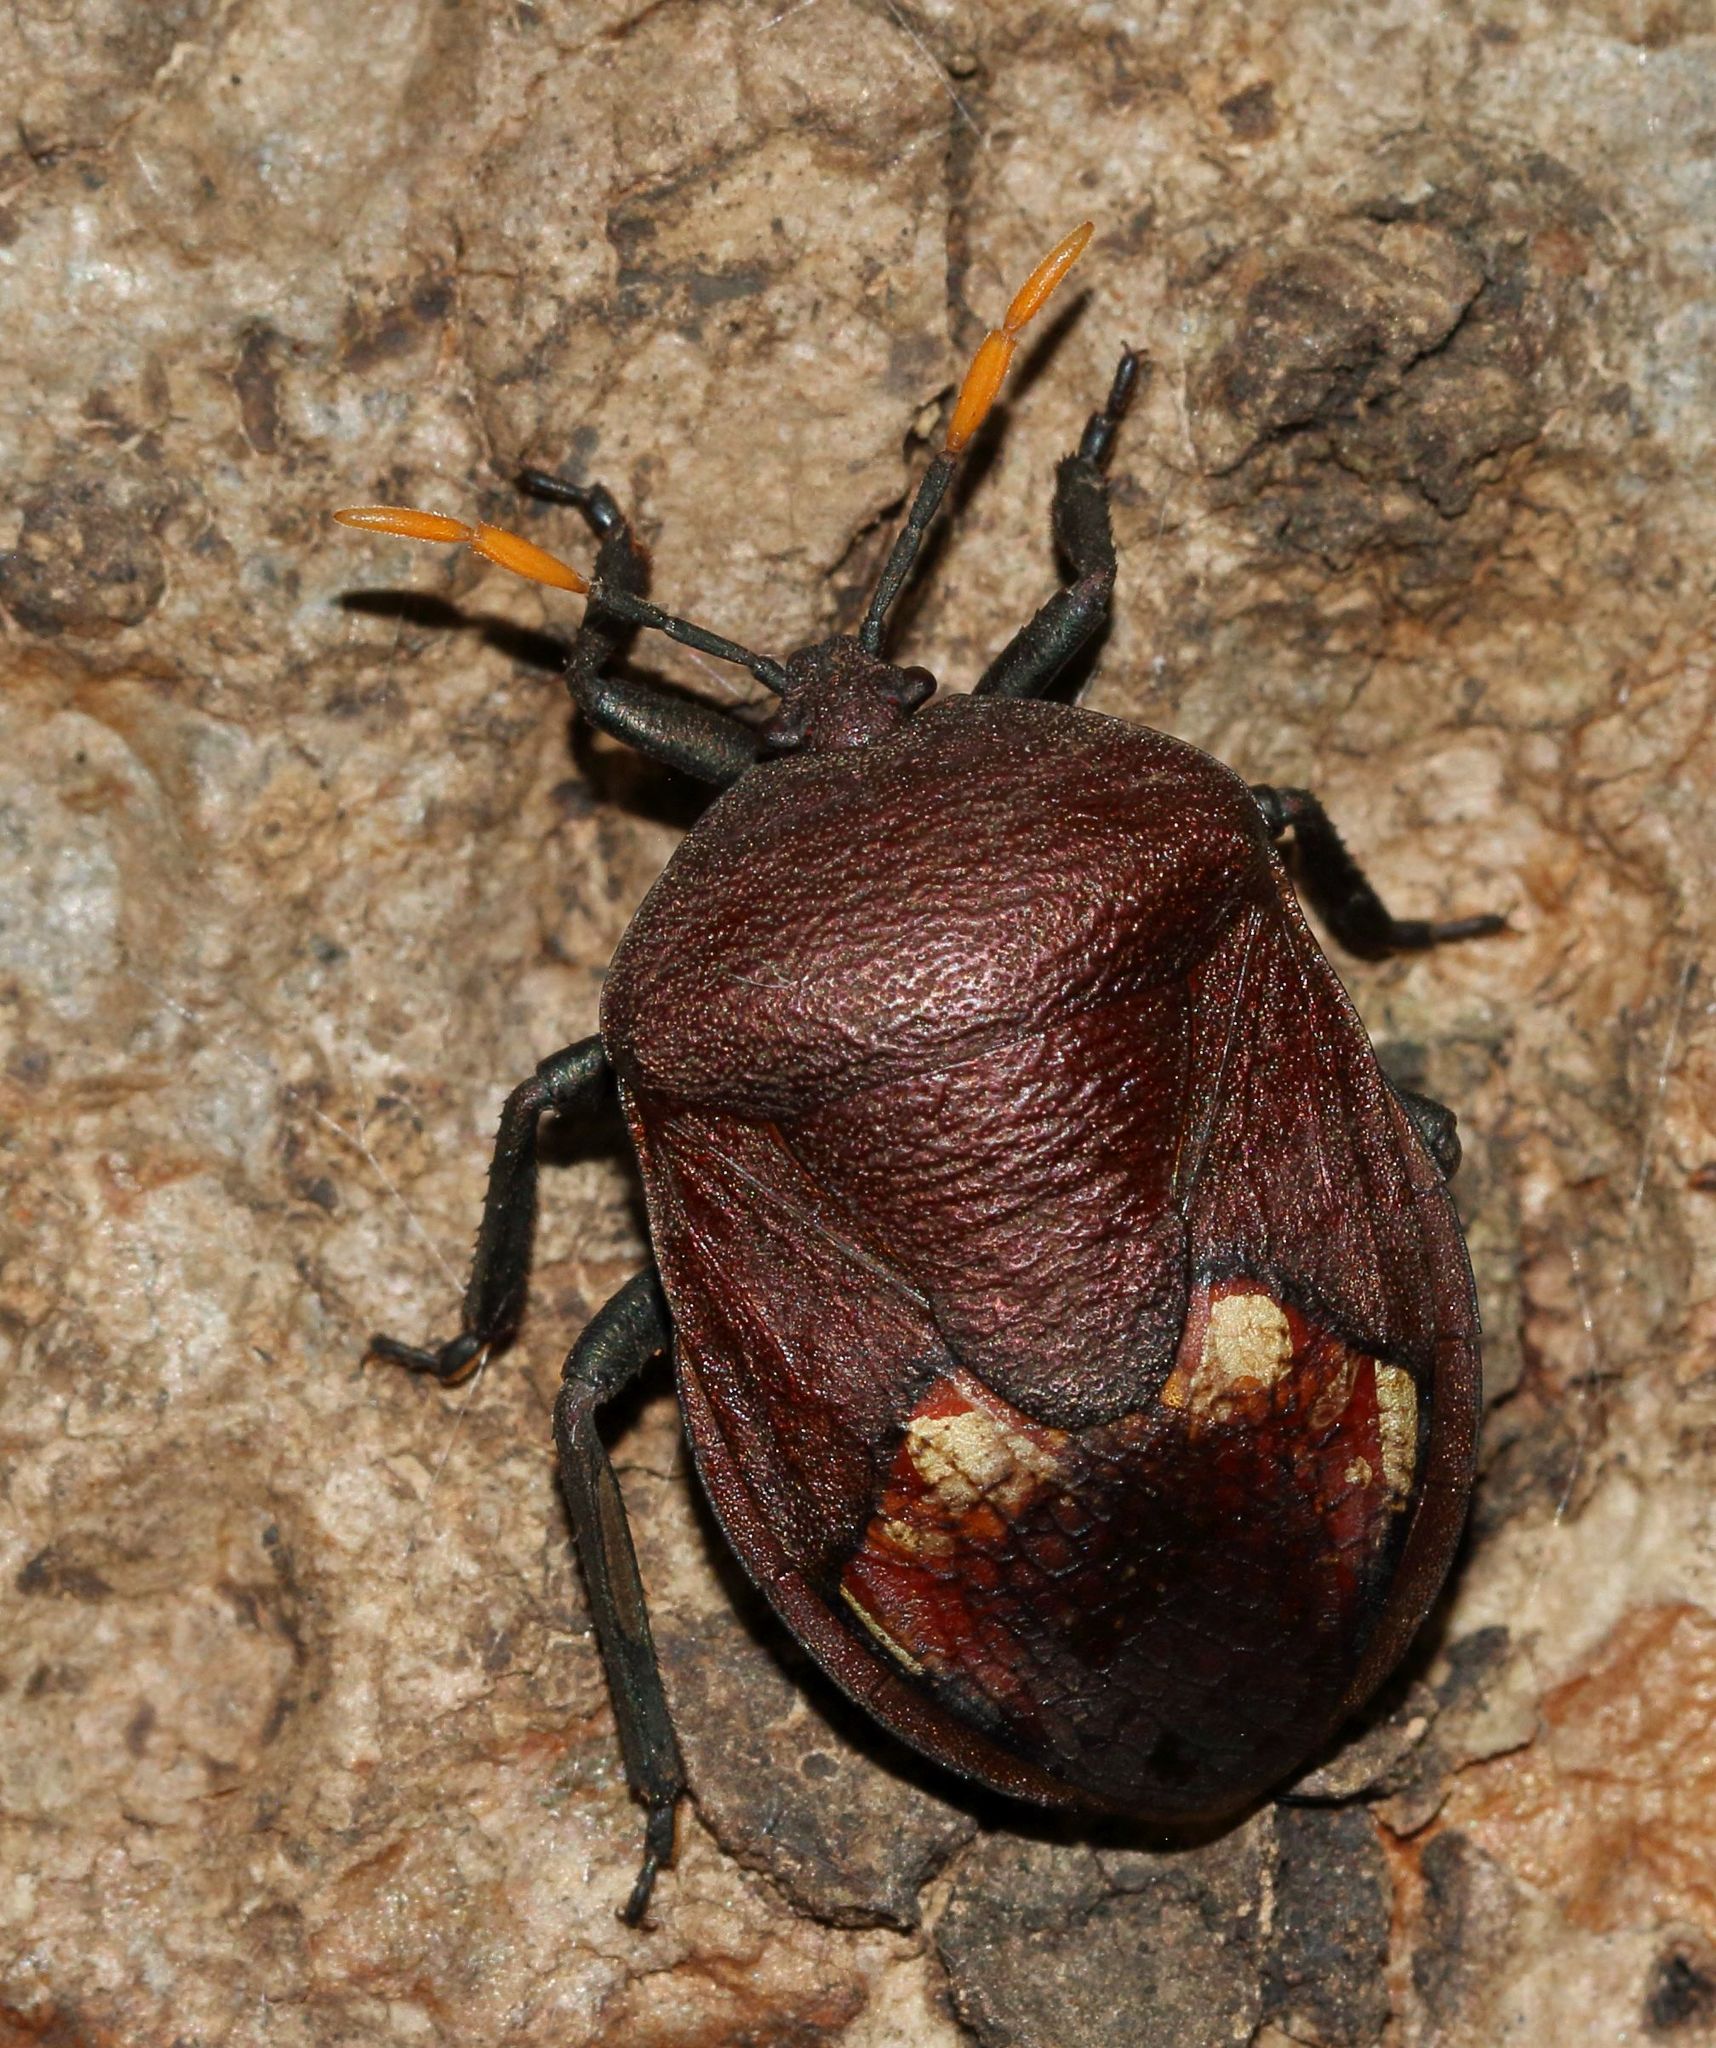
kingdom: Animalia
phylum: Arthropoda
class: Insecta
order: Hemiptera
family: Dinidoridae
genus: Coridius
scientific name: Coridius nubilus
